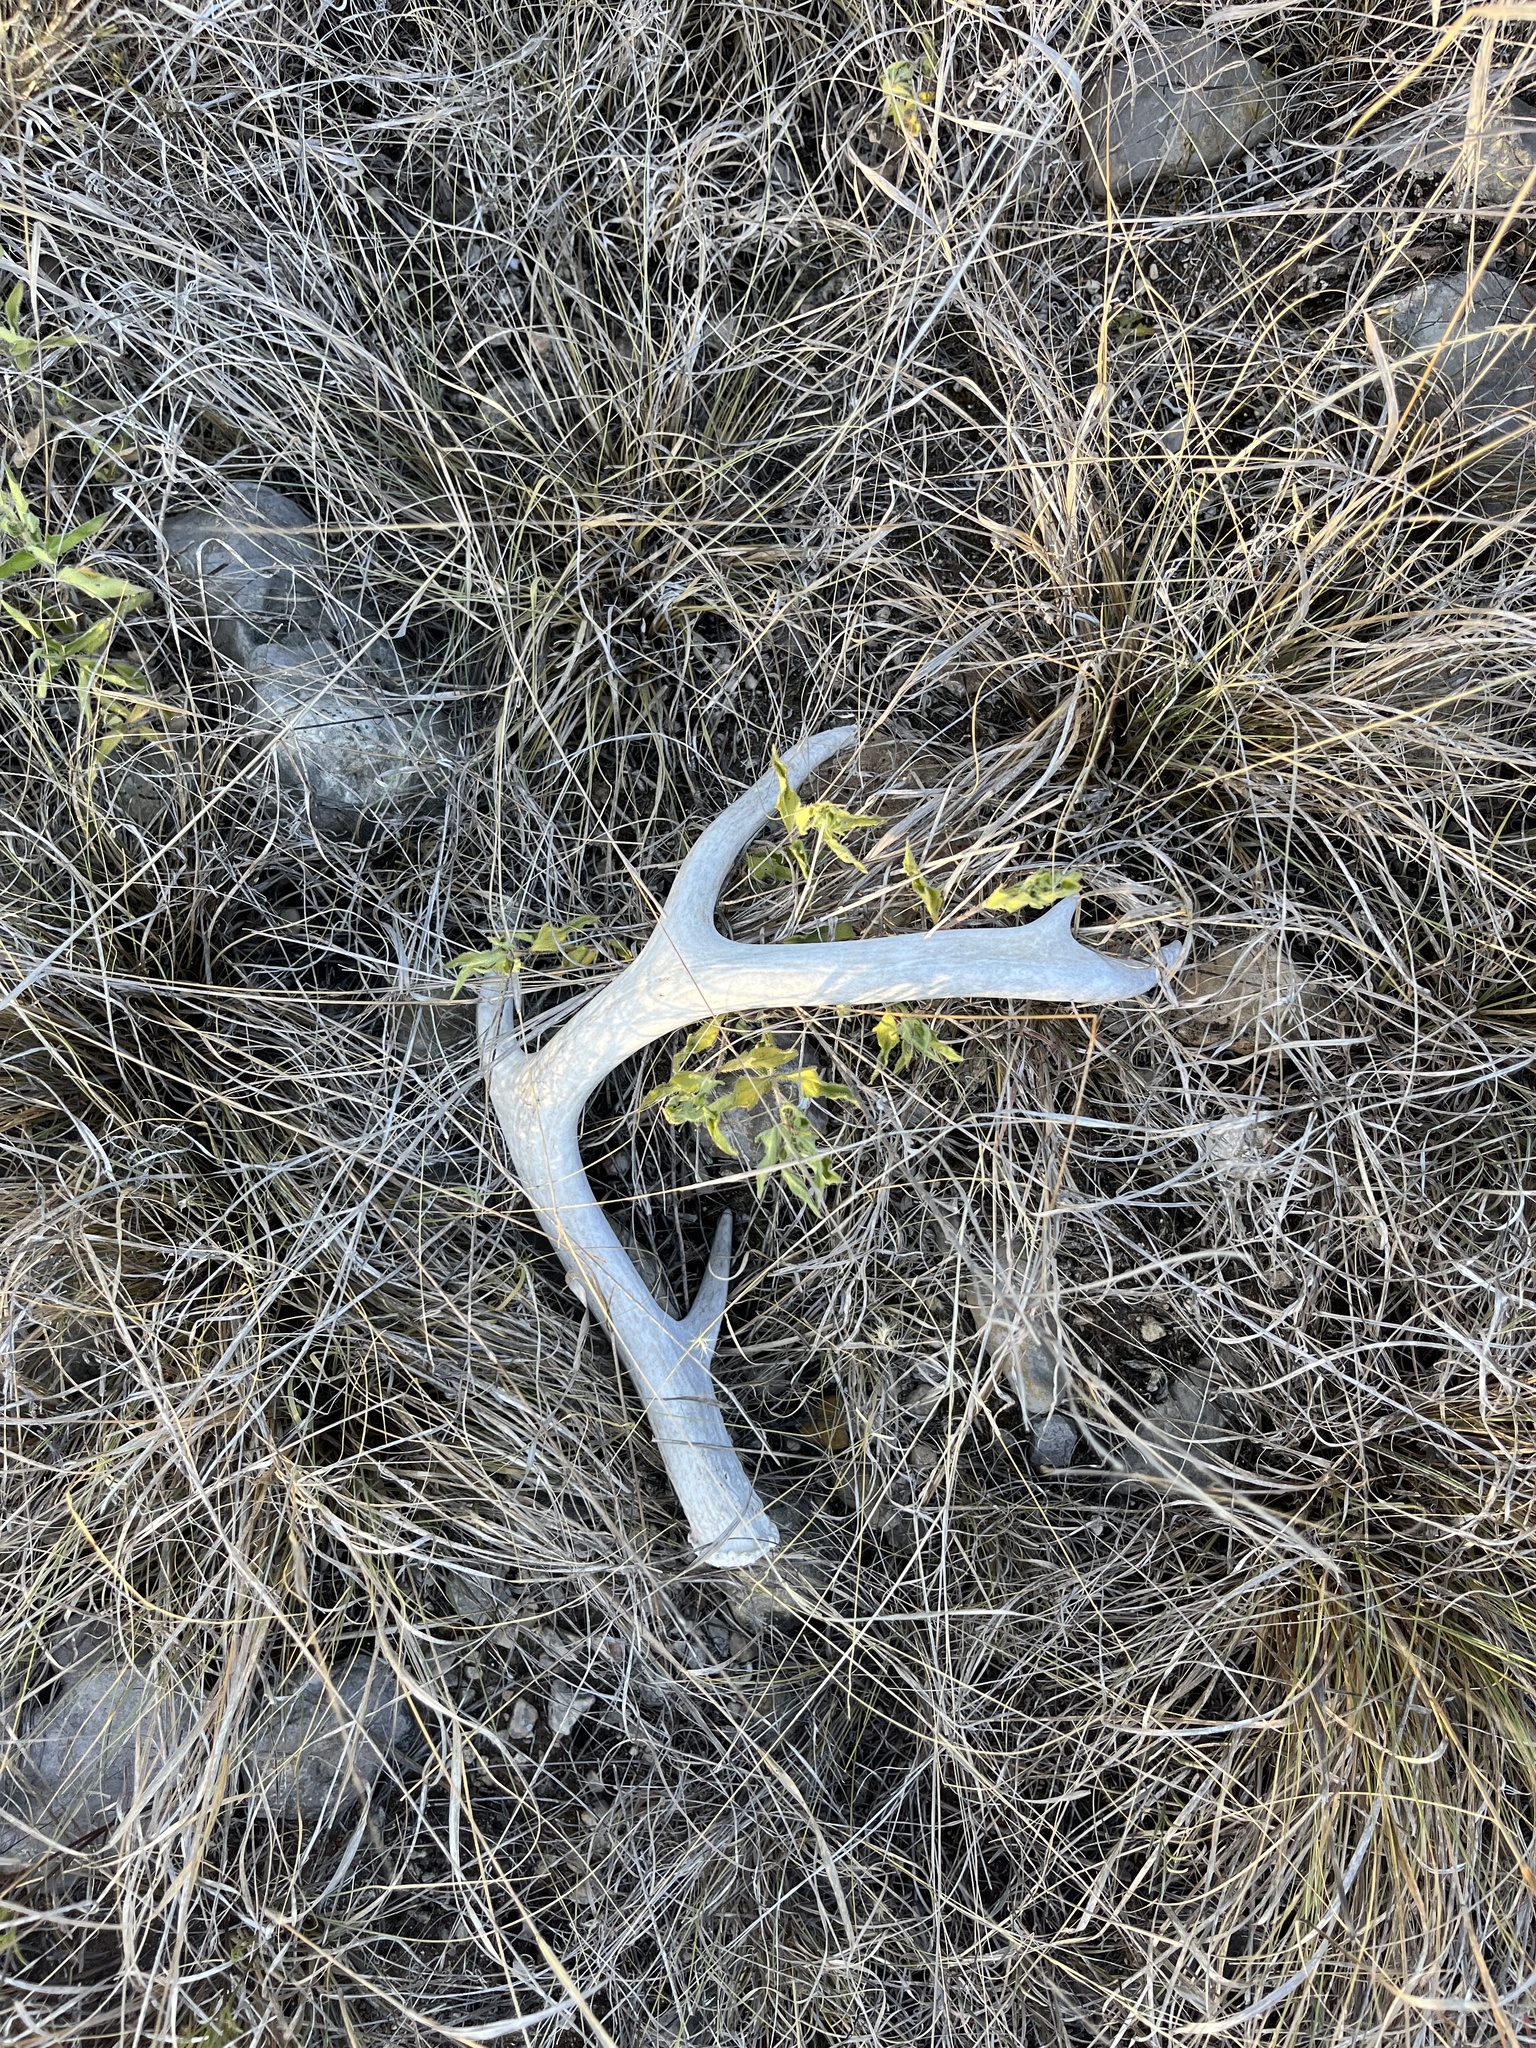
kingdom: Animalia
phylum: Chordata
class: Mammalia
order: Artiodactyla
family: Cervidae
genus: Odocoileus
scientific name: Odocoileus virginianus
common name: White-tailed deer
